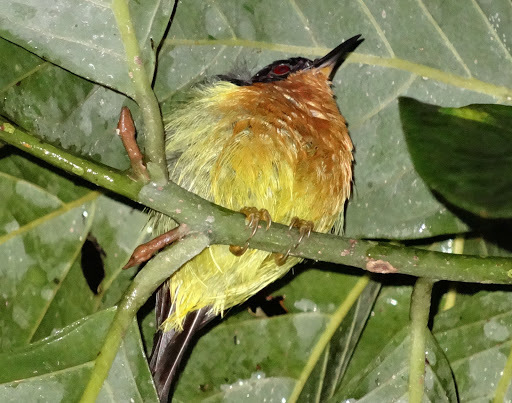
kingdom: Animalia
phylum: Chordata
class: Aves
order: Passeriformes
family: Nectariniidae
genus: Chalcoparia
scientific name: Chalcoparia singalensis
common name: Ruby-cheeked sunbird
